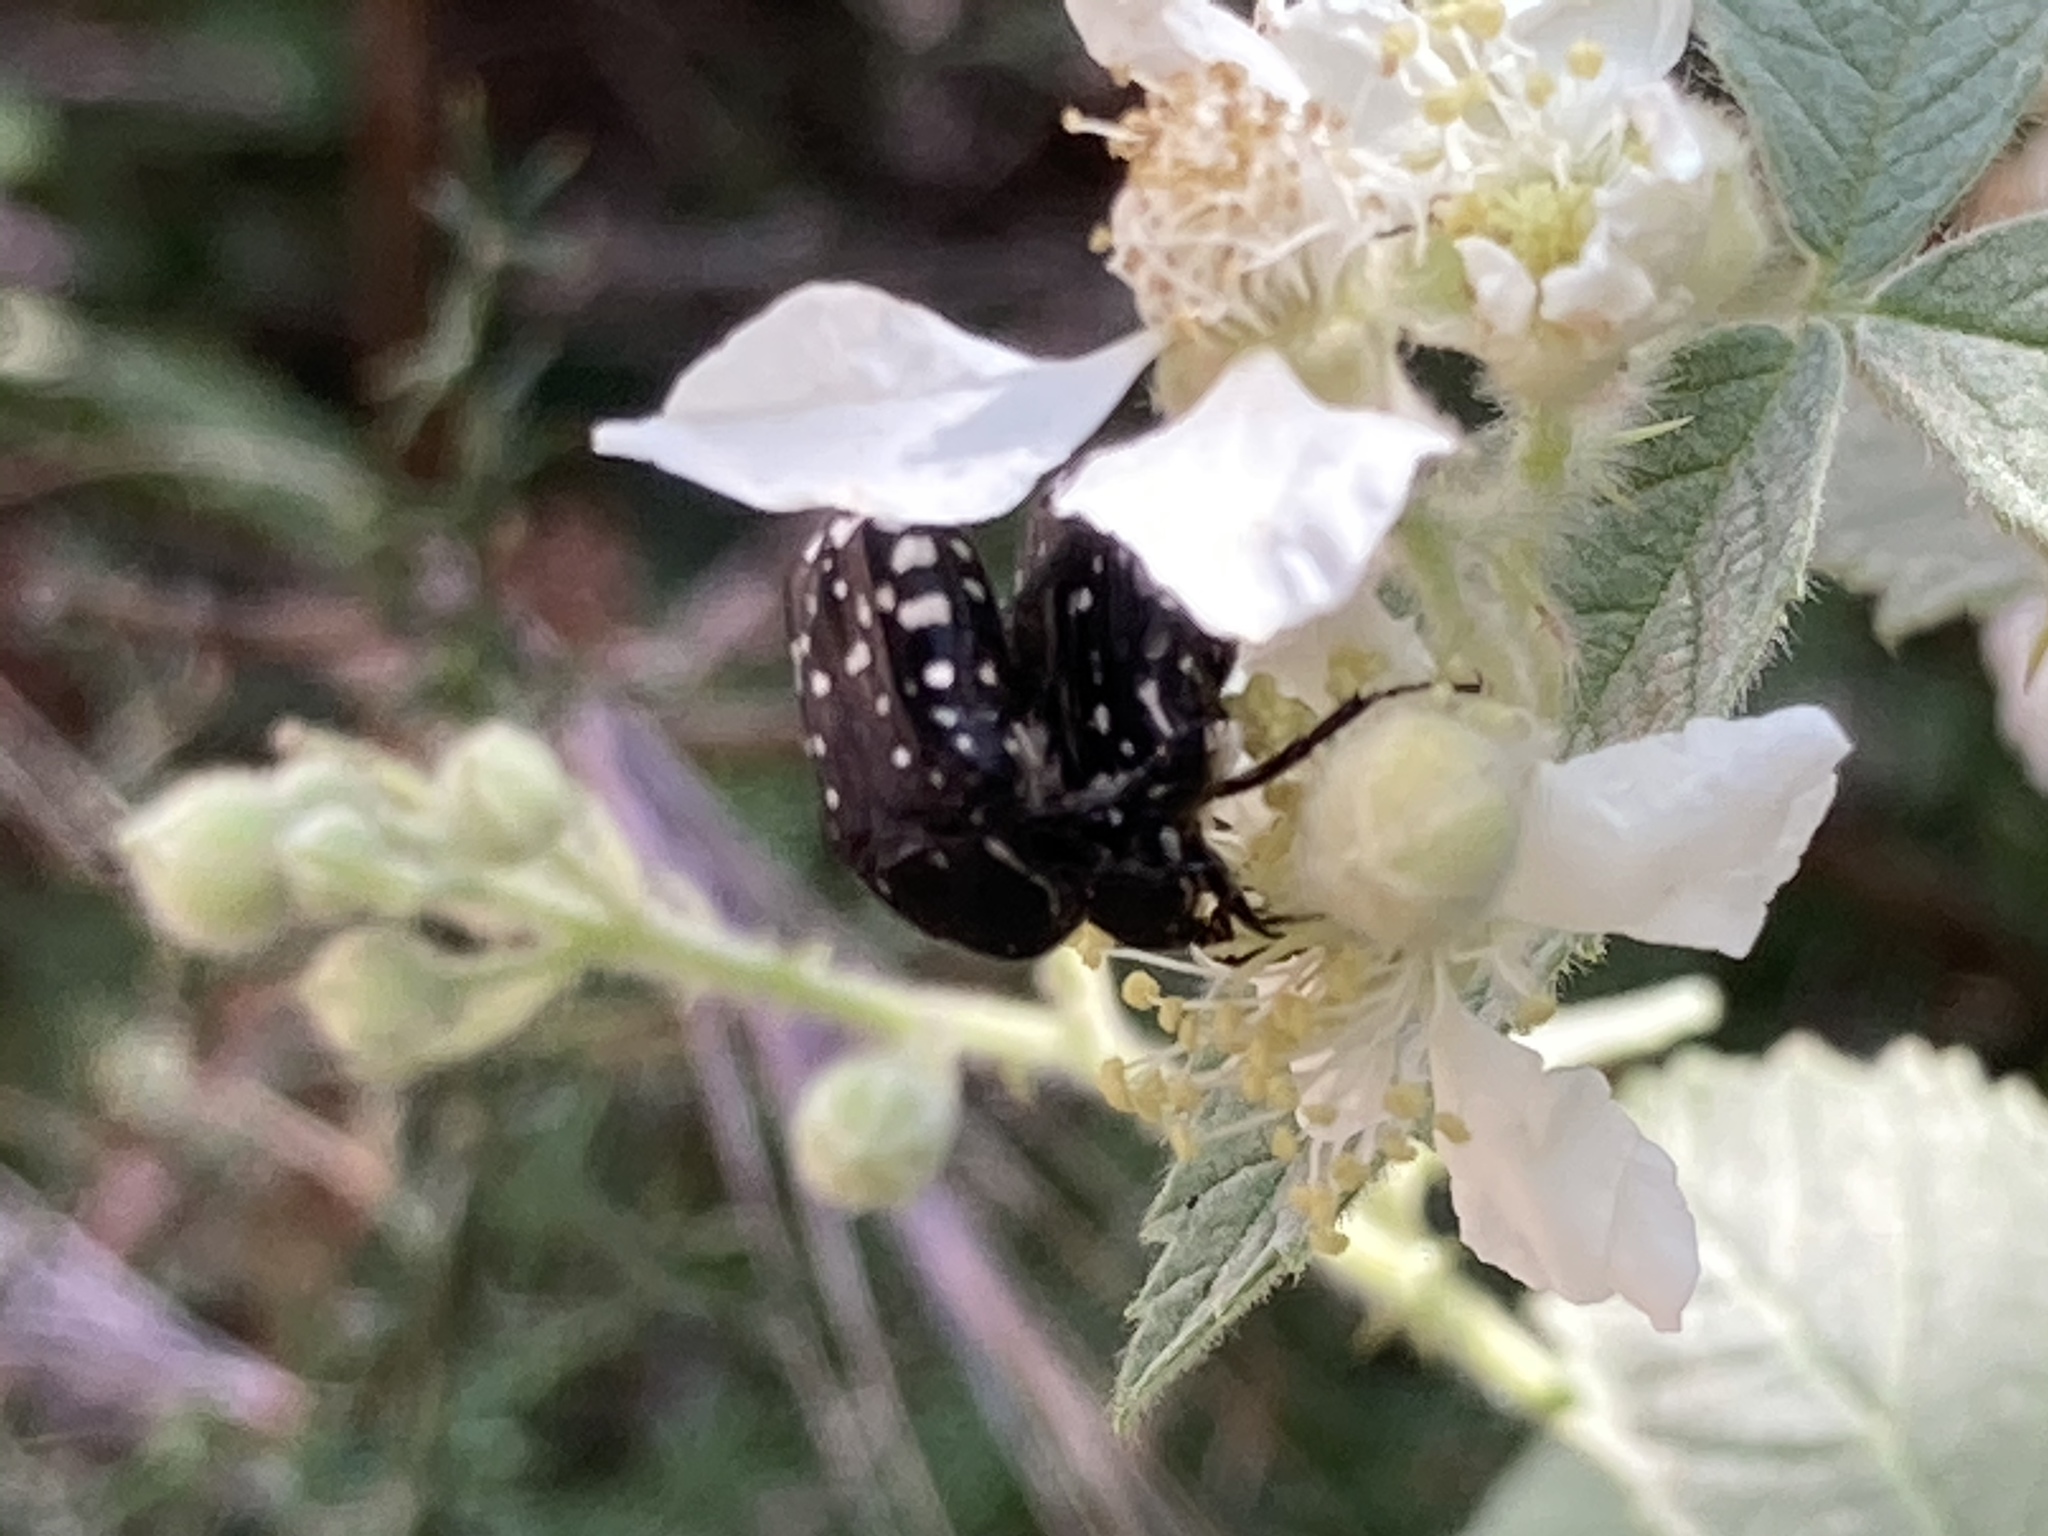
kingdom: Plantae
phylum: Tracheophyta
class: Magnoliopsida
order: Rosales
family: Rosaceae
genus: Rubus
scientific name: Rubus sanctus
